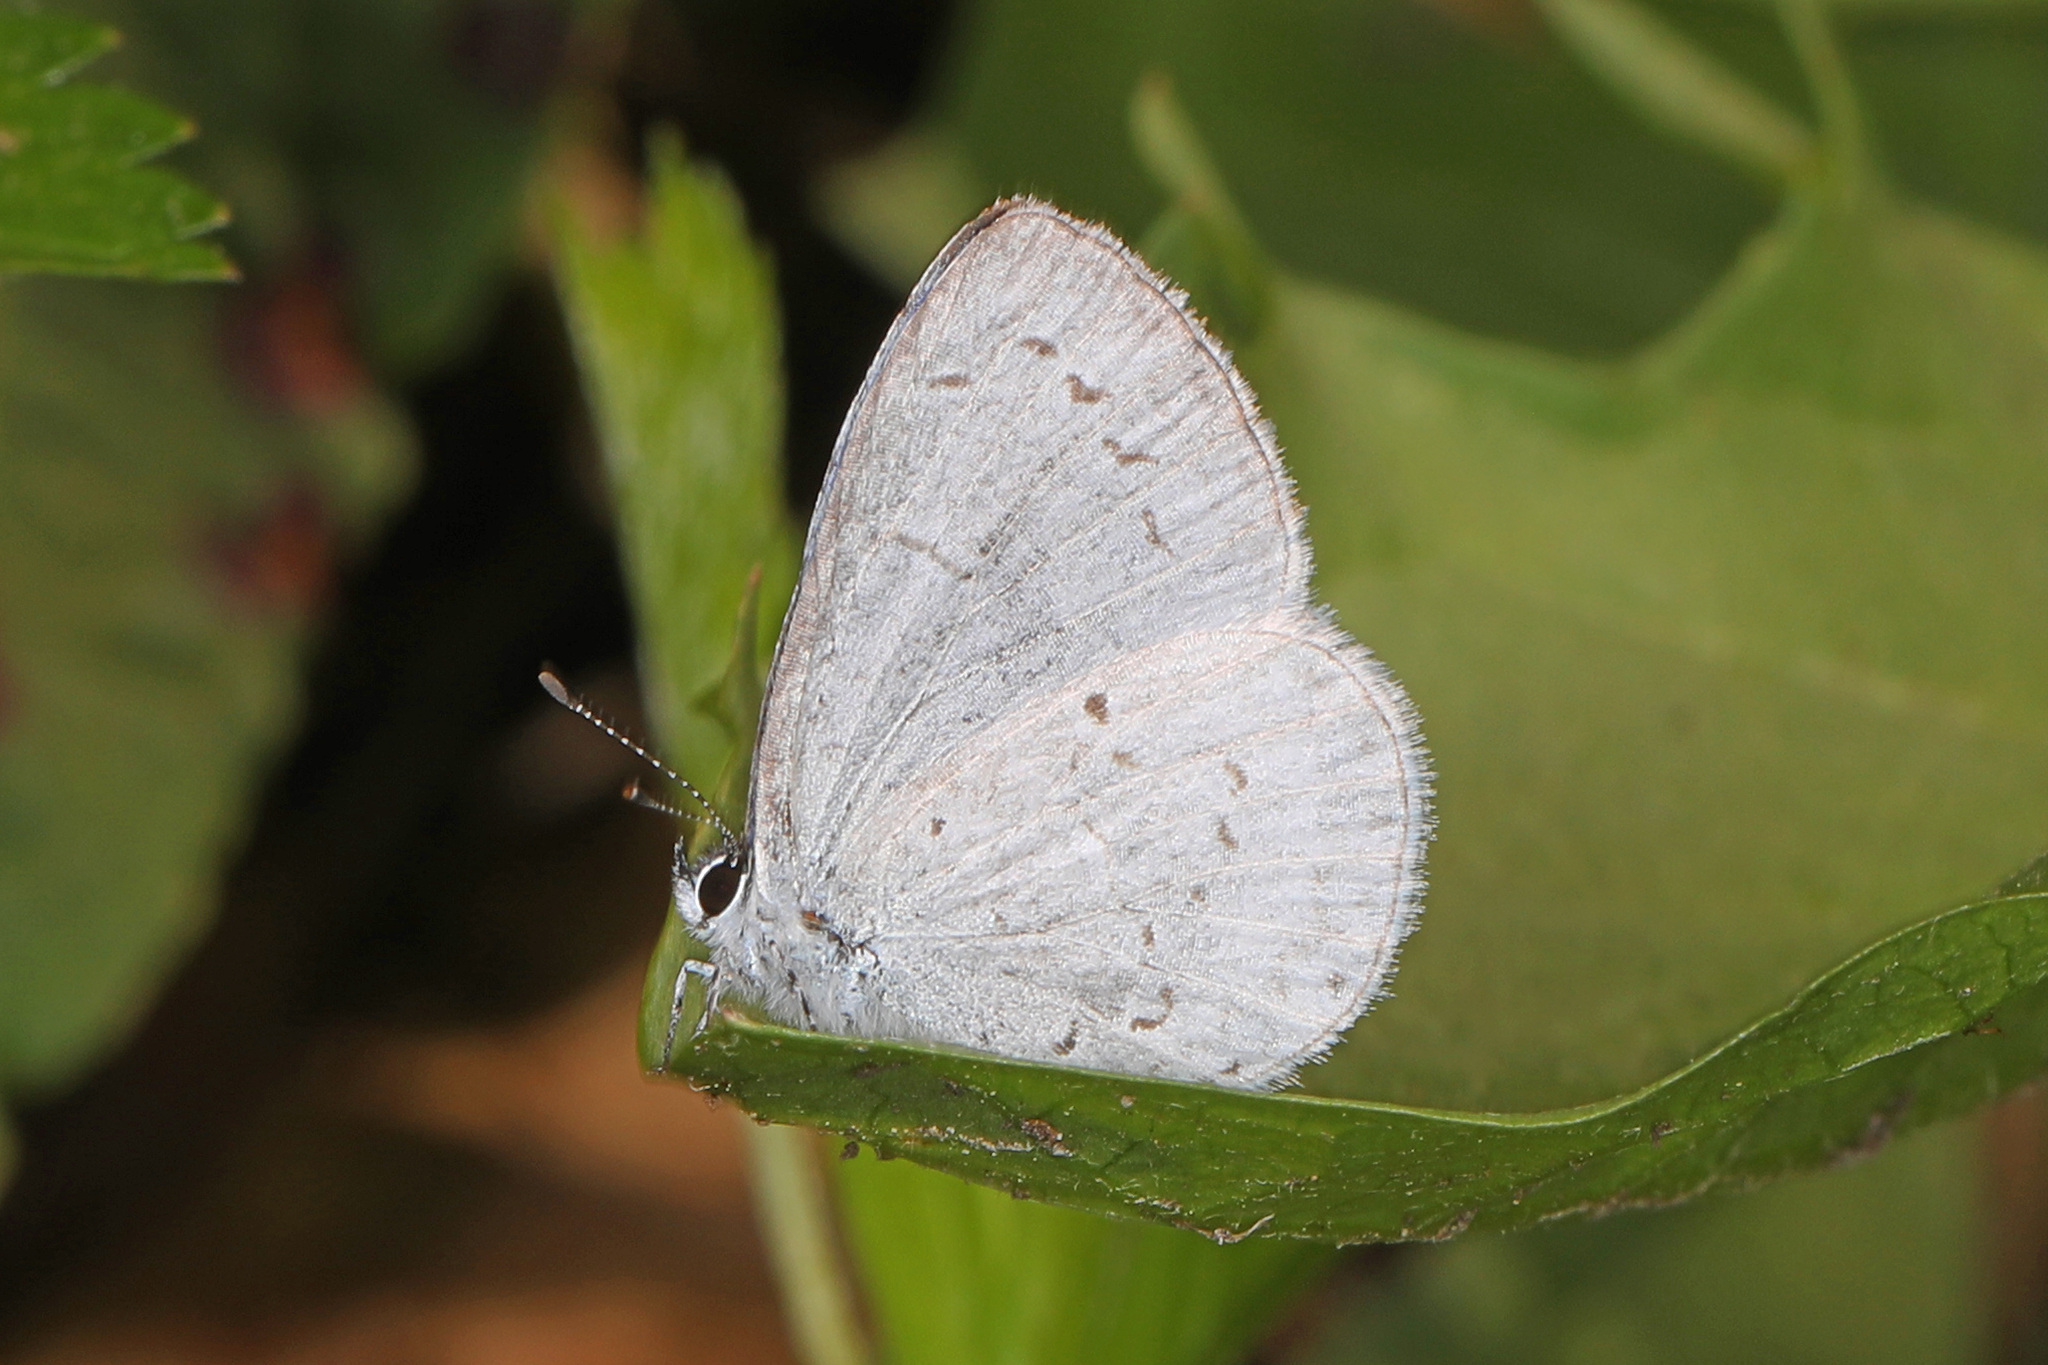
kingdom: Animalia
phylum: Arthropoda
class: Insecta
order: Lepidoptera
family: Lycaenidae
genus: Cyaniris
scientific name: Cyaniris neglecta
